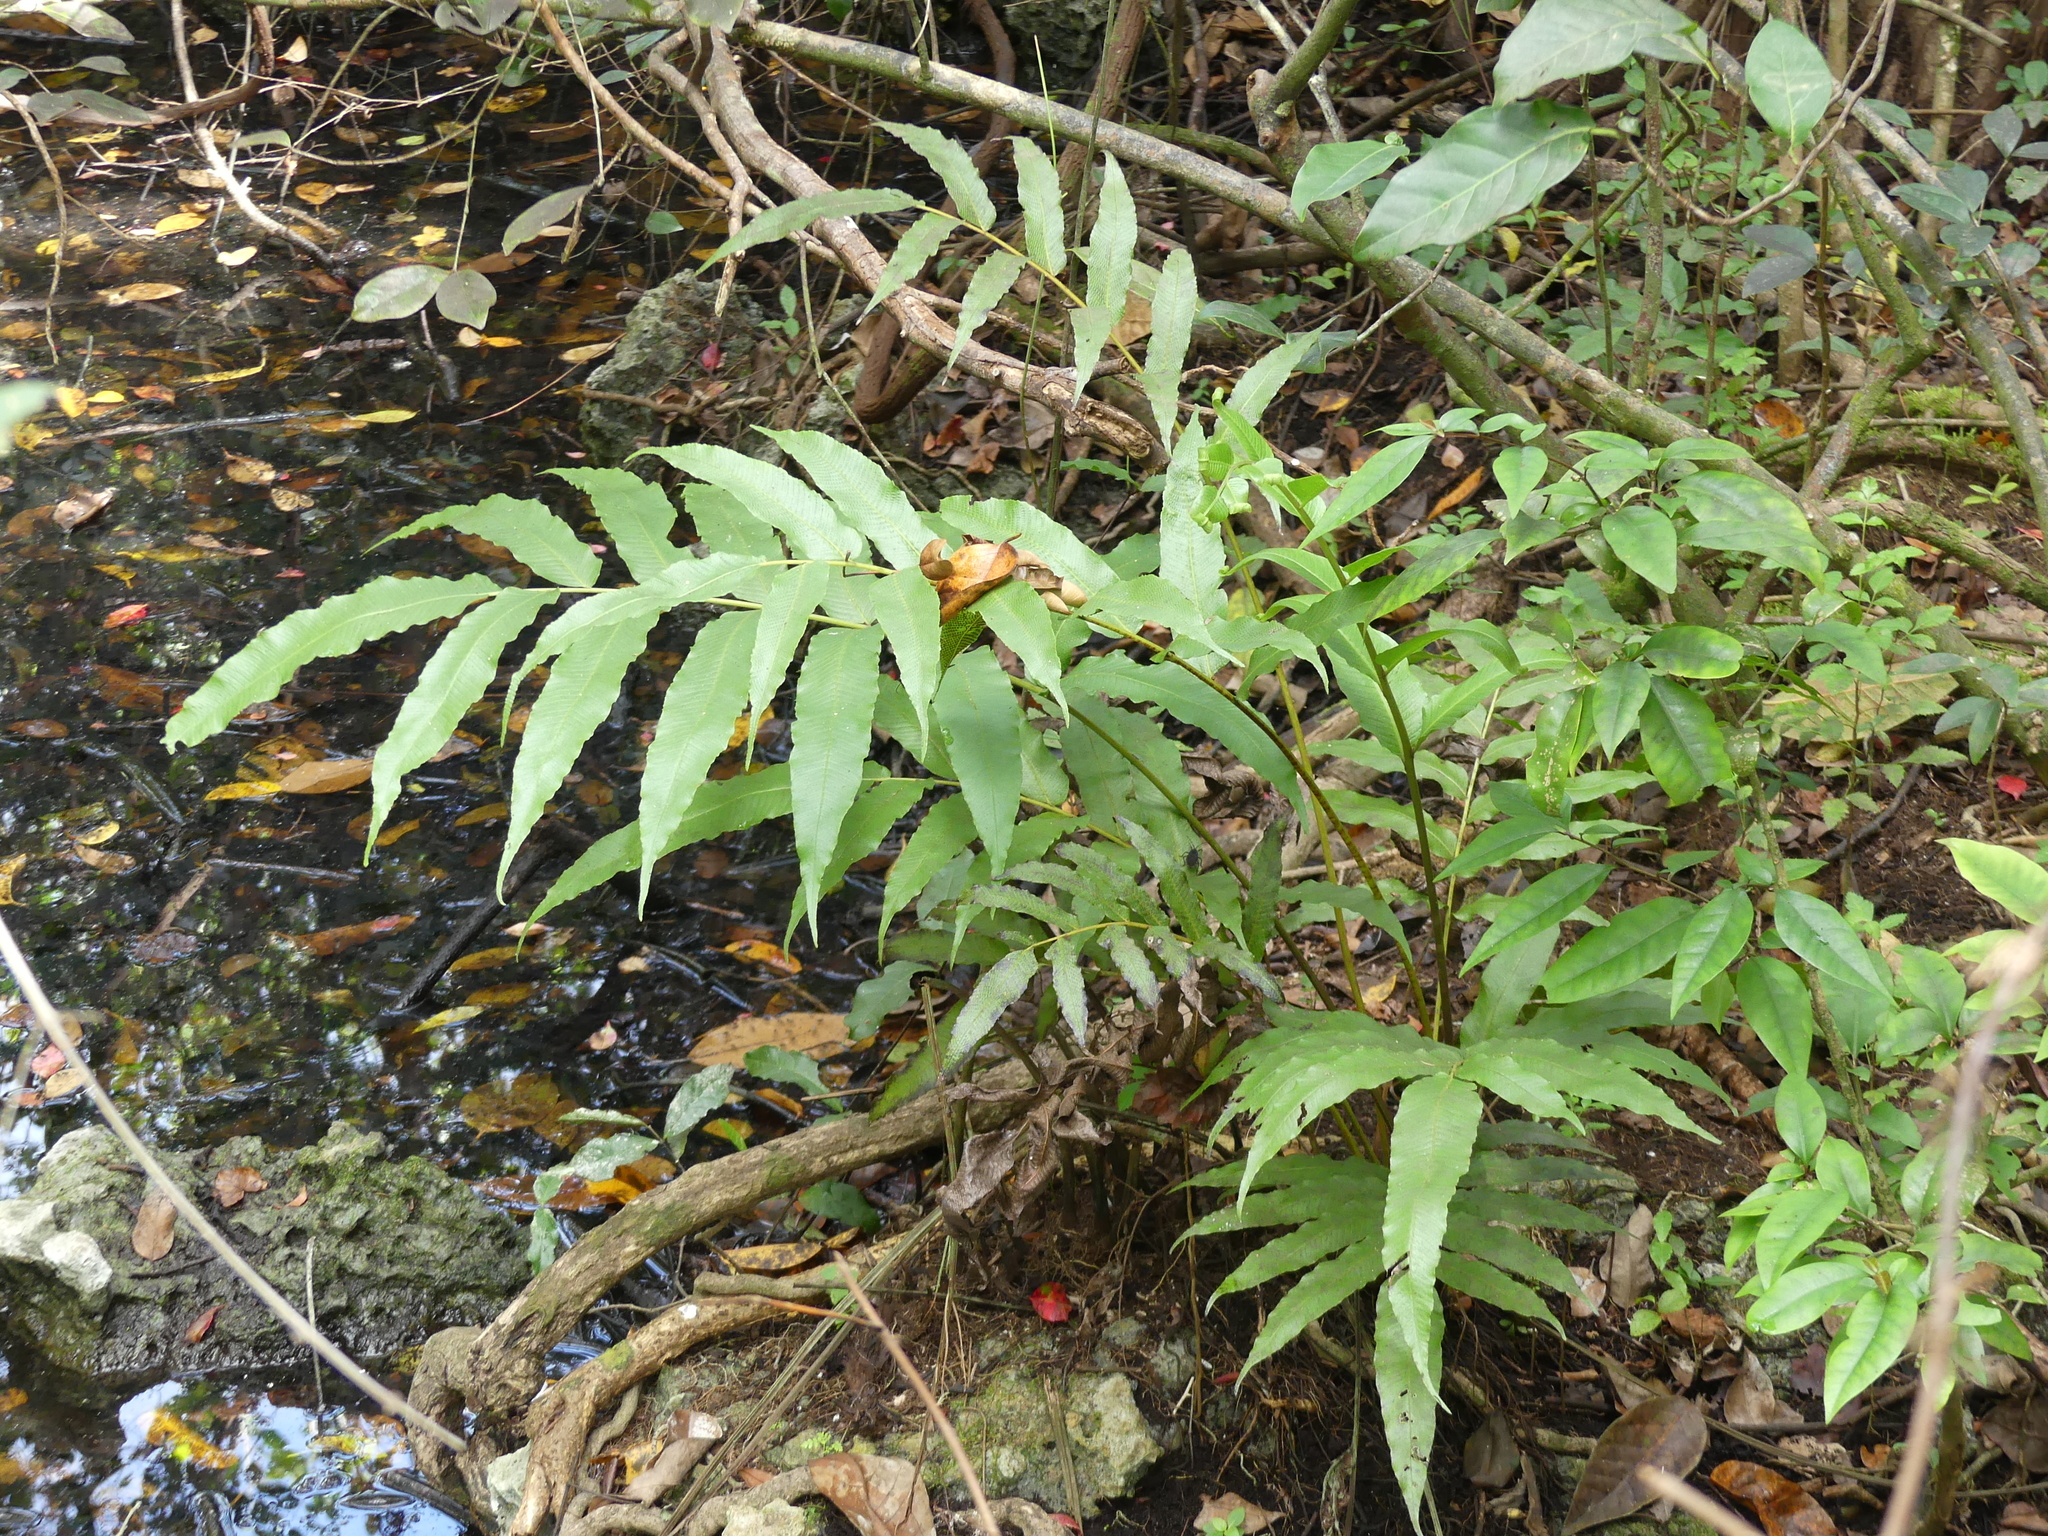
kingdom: Plantae
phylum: Tracheophyta
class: Polypodiopsida
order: Polypodiales
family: Thelypteridaceae
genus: Meniscium
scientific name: Meniscium reticulatum
